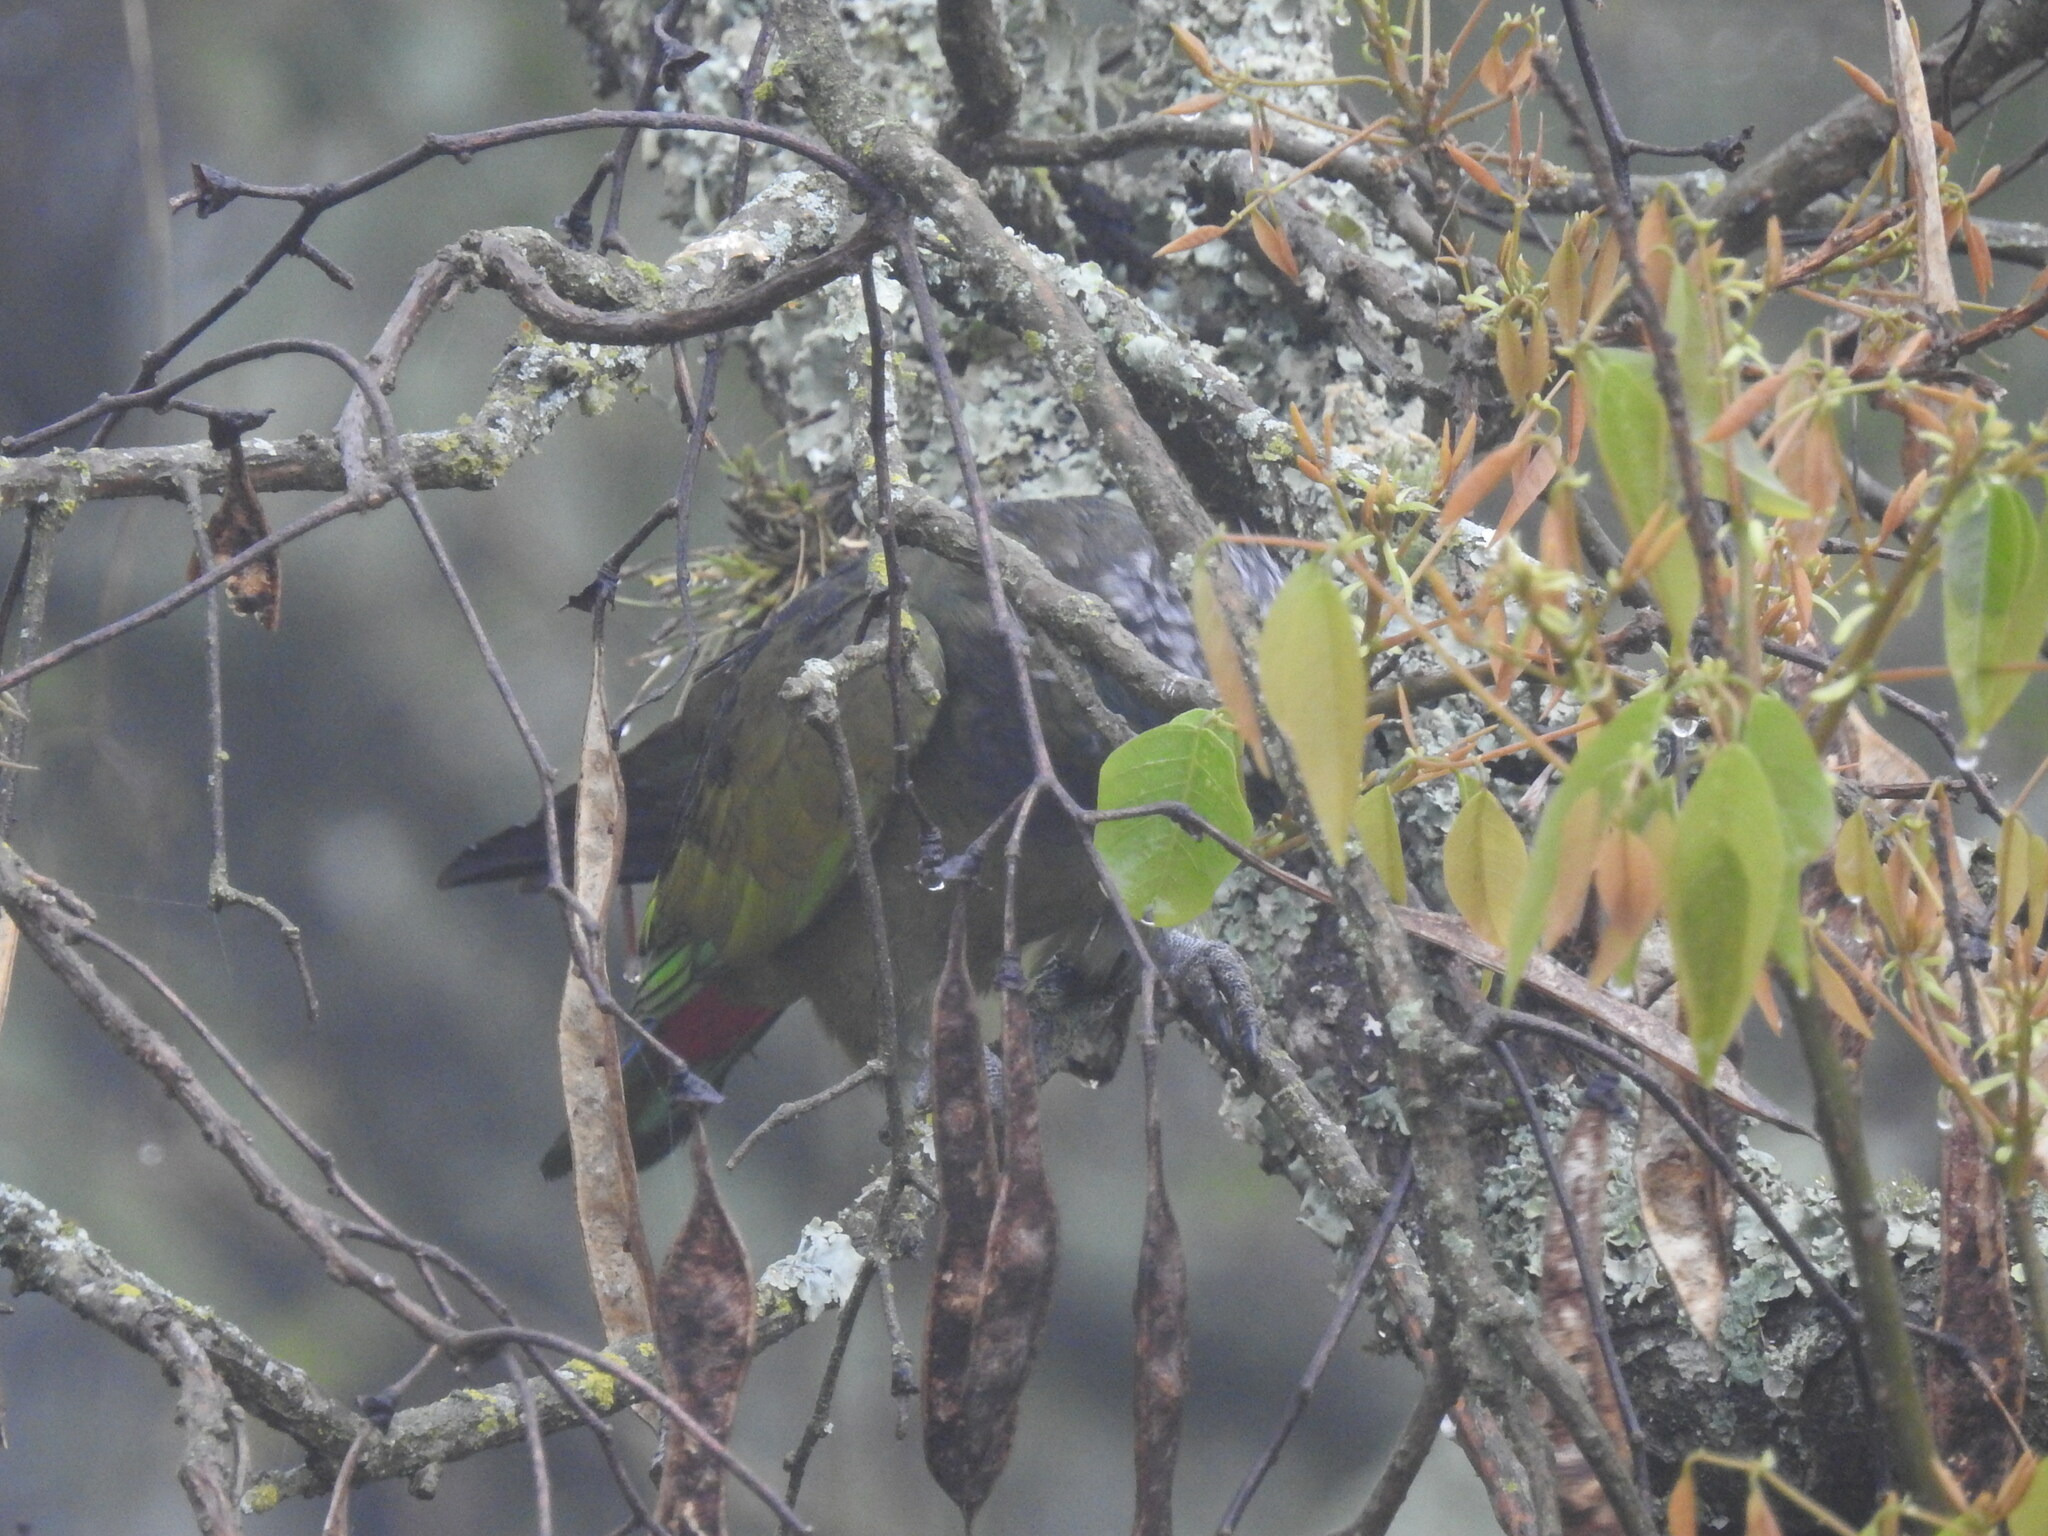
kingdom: Animalia
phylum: Chordata
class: Aves
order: Psittaciformes
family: Psittacidae
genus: Pionus
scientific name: Pionus maximiliani
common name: Scaly-headed parrot
